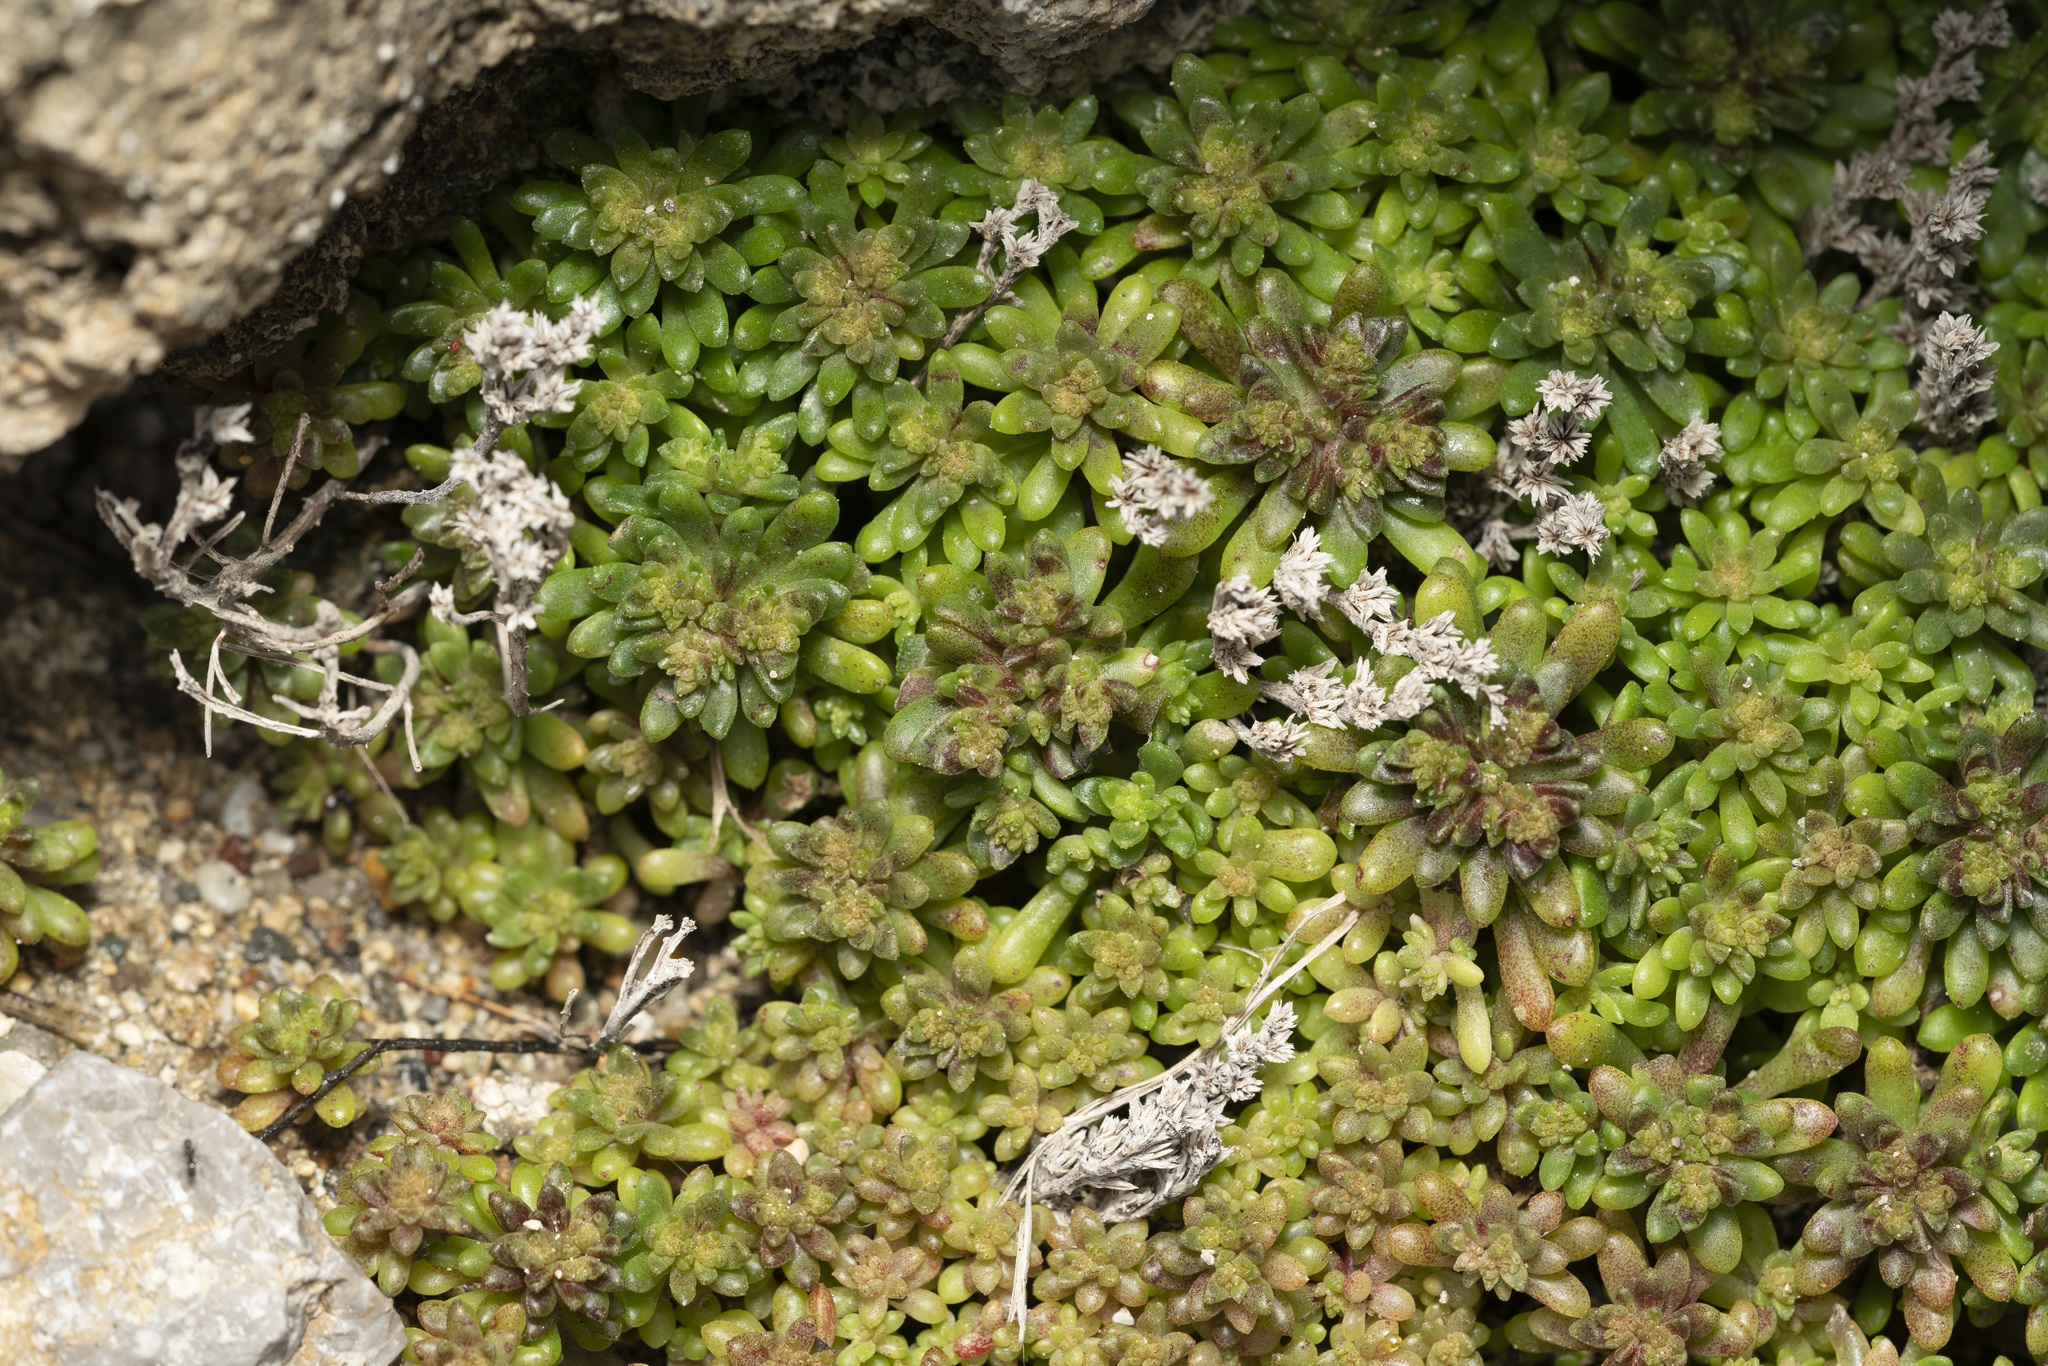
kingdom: Plantae
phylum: Tracheophyta
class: Magnoliopsida
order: Saxifragales
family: Crassulaceae
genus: Sedum
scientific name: Sedum litoreum
